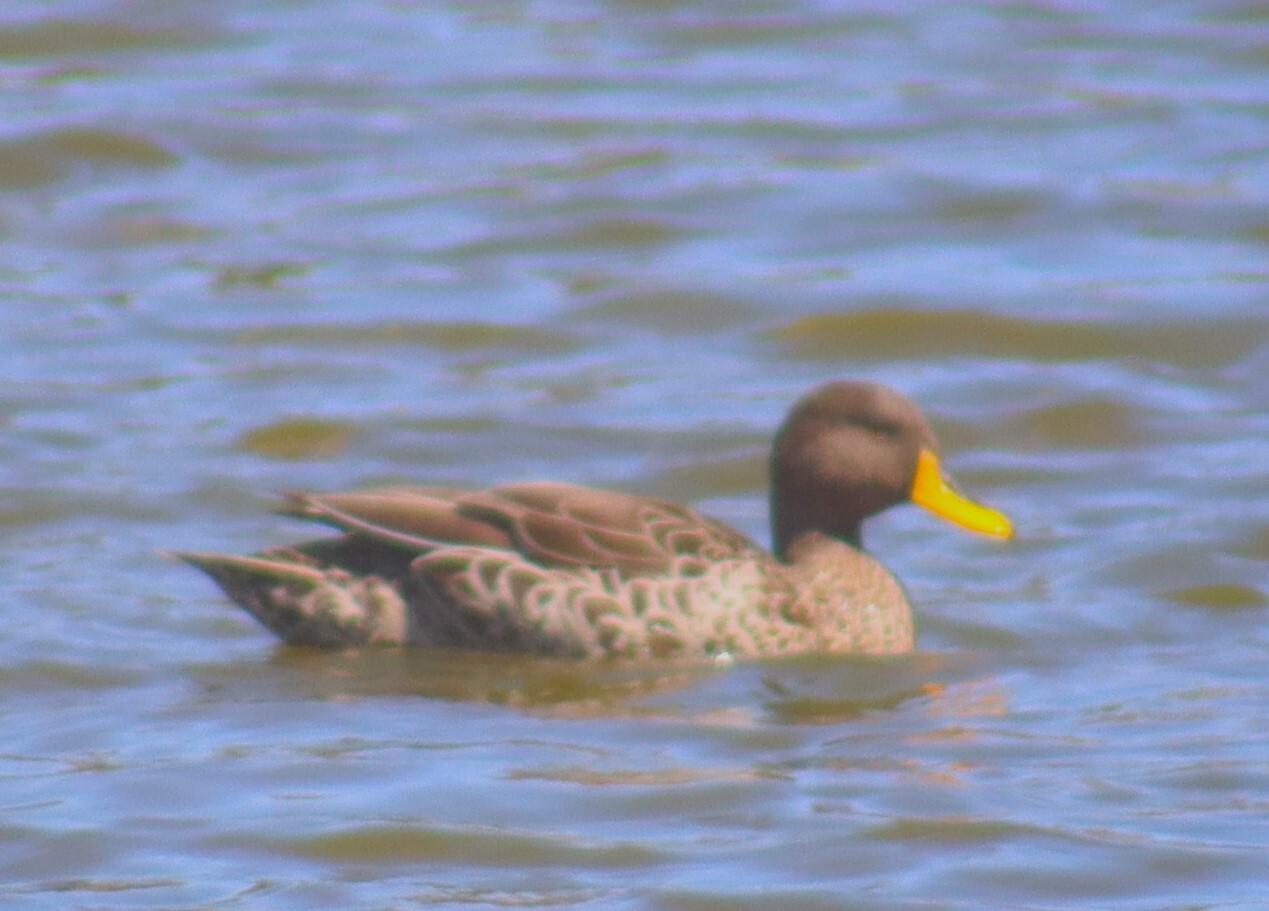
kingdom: Animalia
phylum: Chordata
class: Aves
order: Anseriformes
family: Anatidae
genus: Anas
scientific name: Anas undulata
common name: Yellow-billed duck
